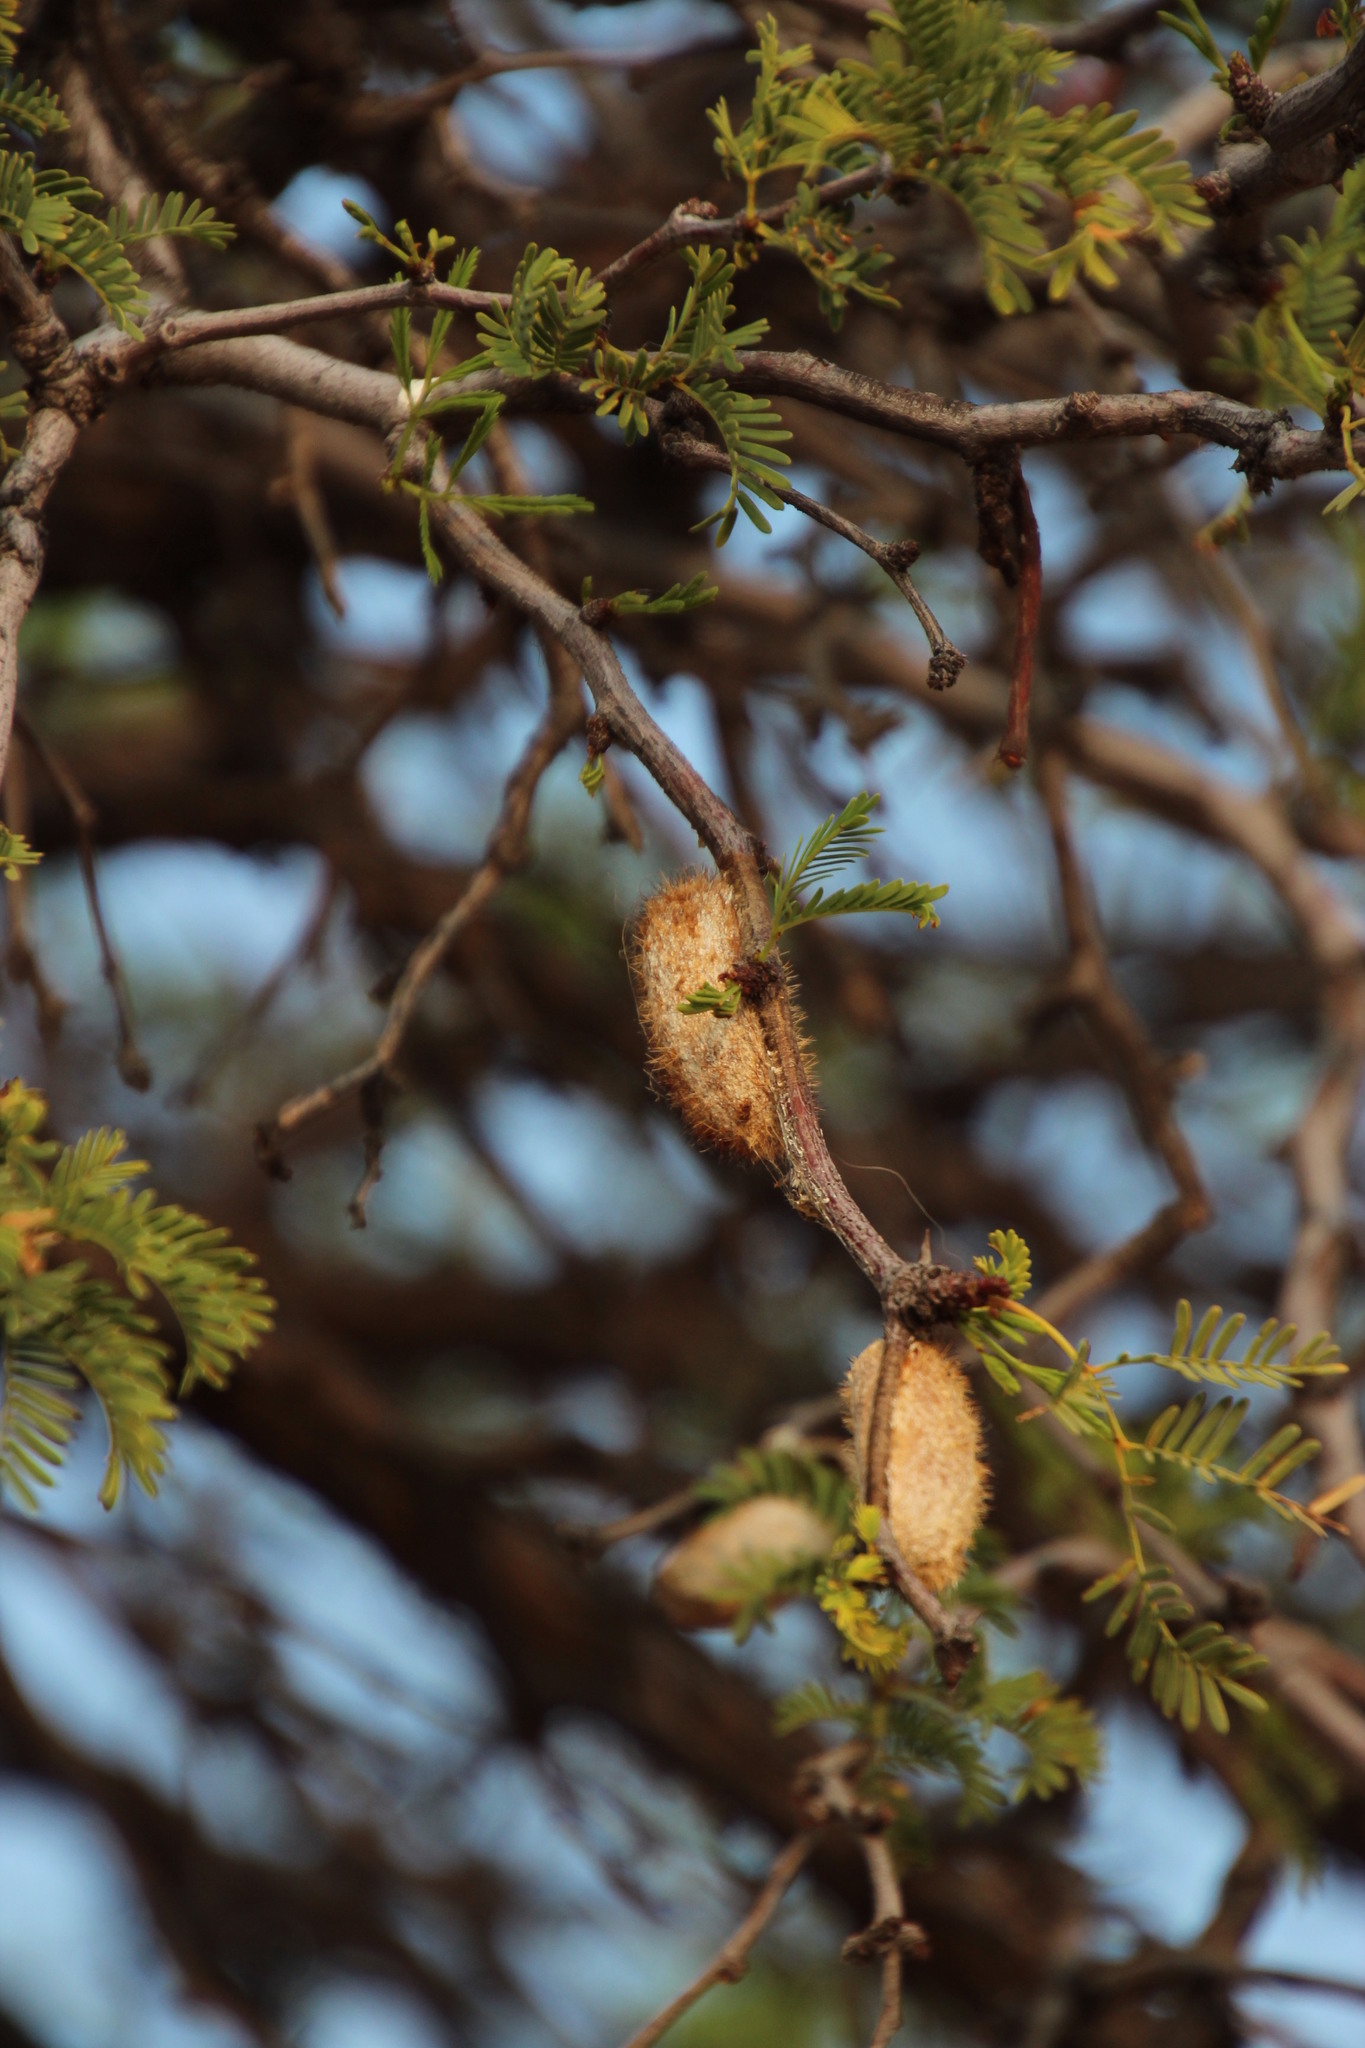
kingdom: Animalia
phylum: Arthropoda
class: Insecta
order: Lepidoptera
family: Lasiocampidae
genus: Gonometa
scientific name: Gonometa postica
